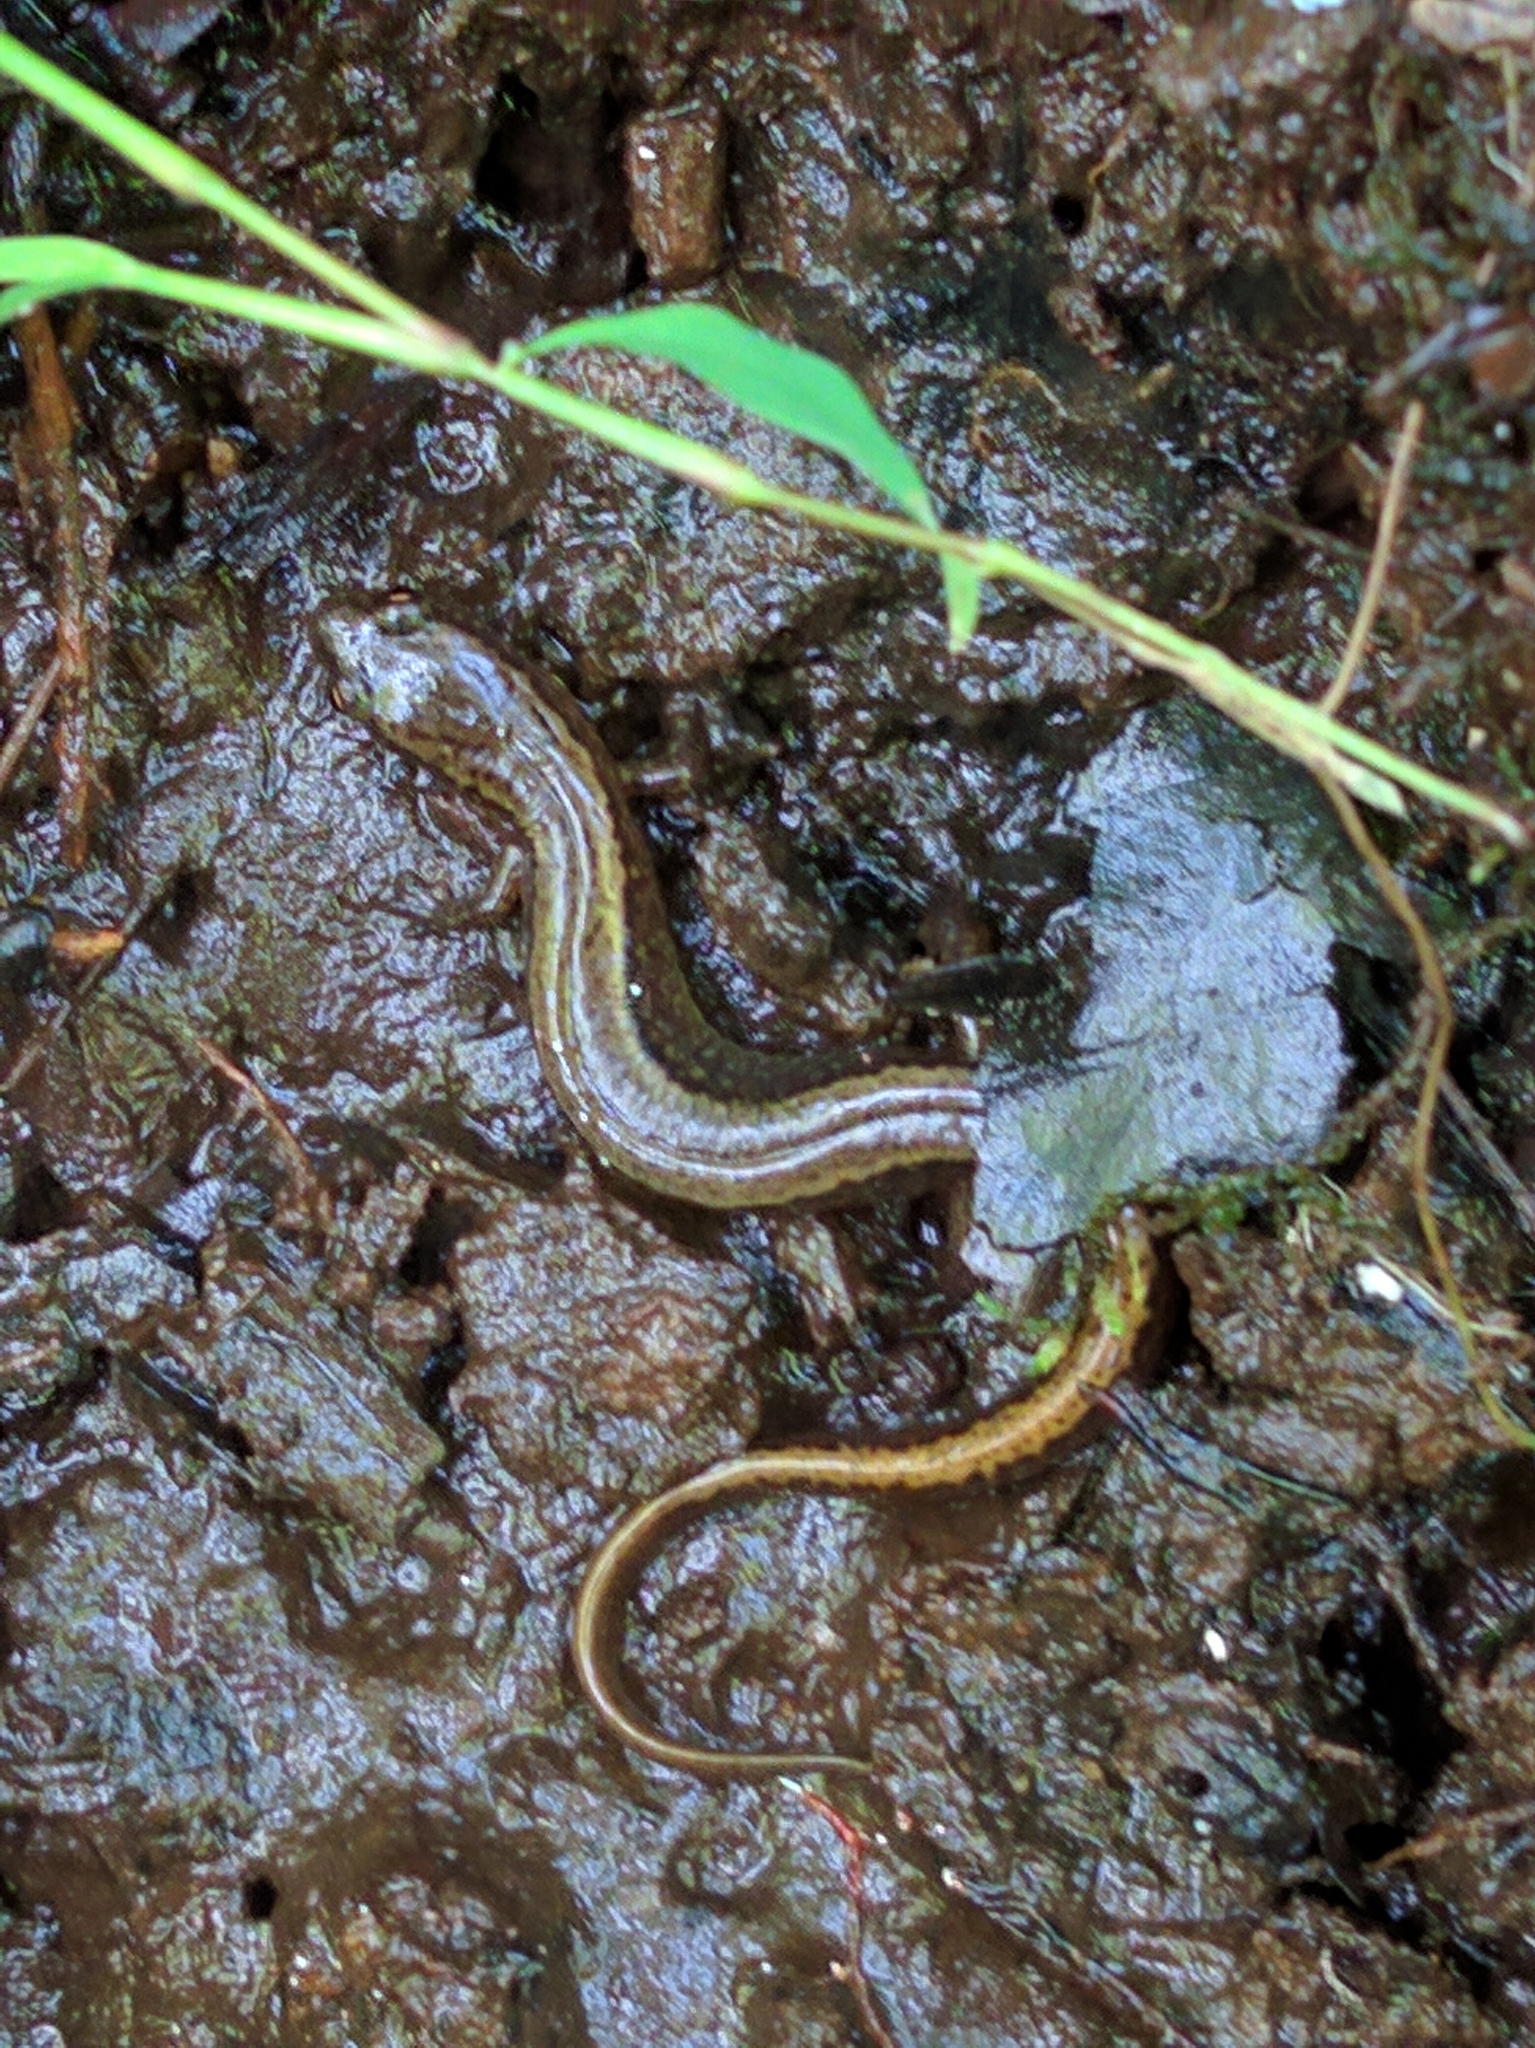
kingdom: Animalia
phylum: Chordata
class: Amphibia
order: Caudata
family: Plethodontidae
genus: Eurycea
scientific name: Eurycea bislineata
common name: Northern two-lined salamander
